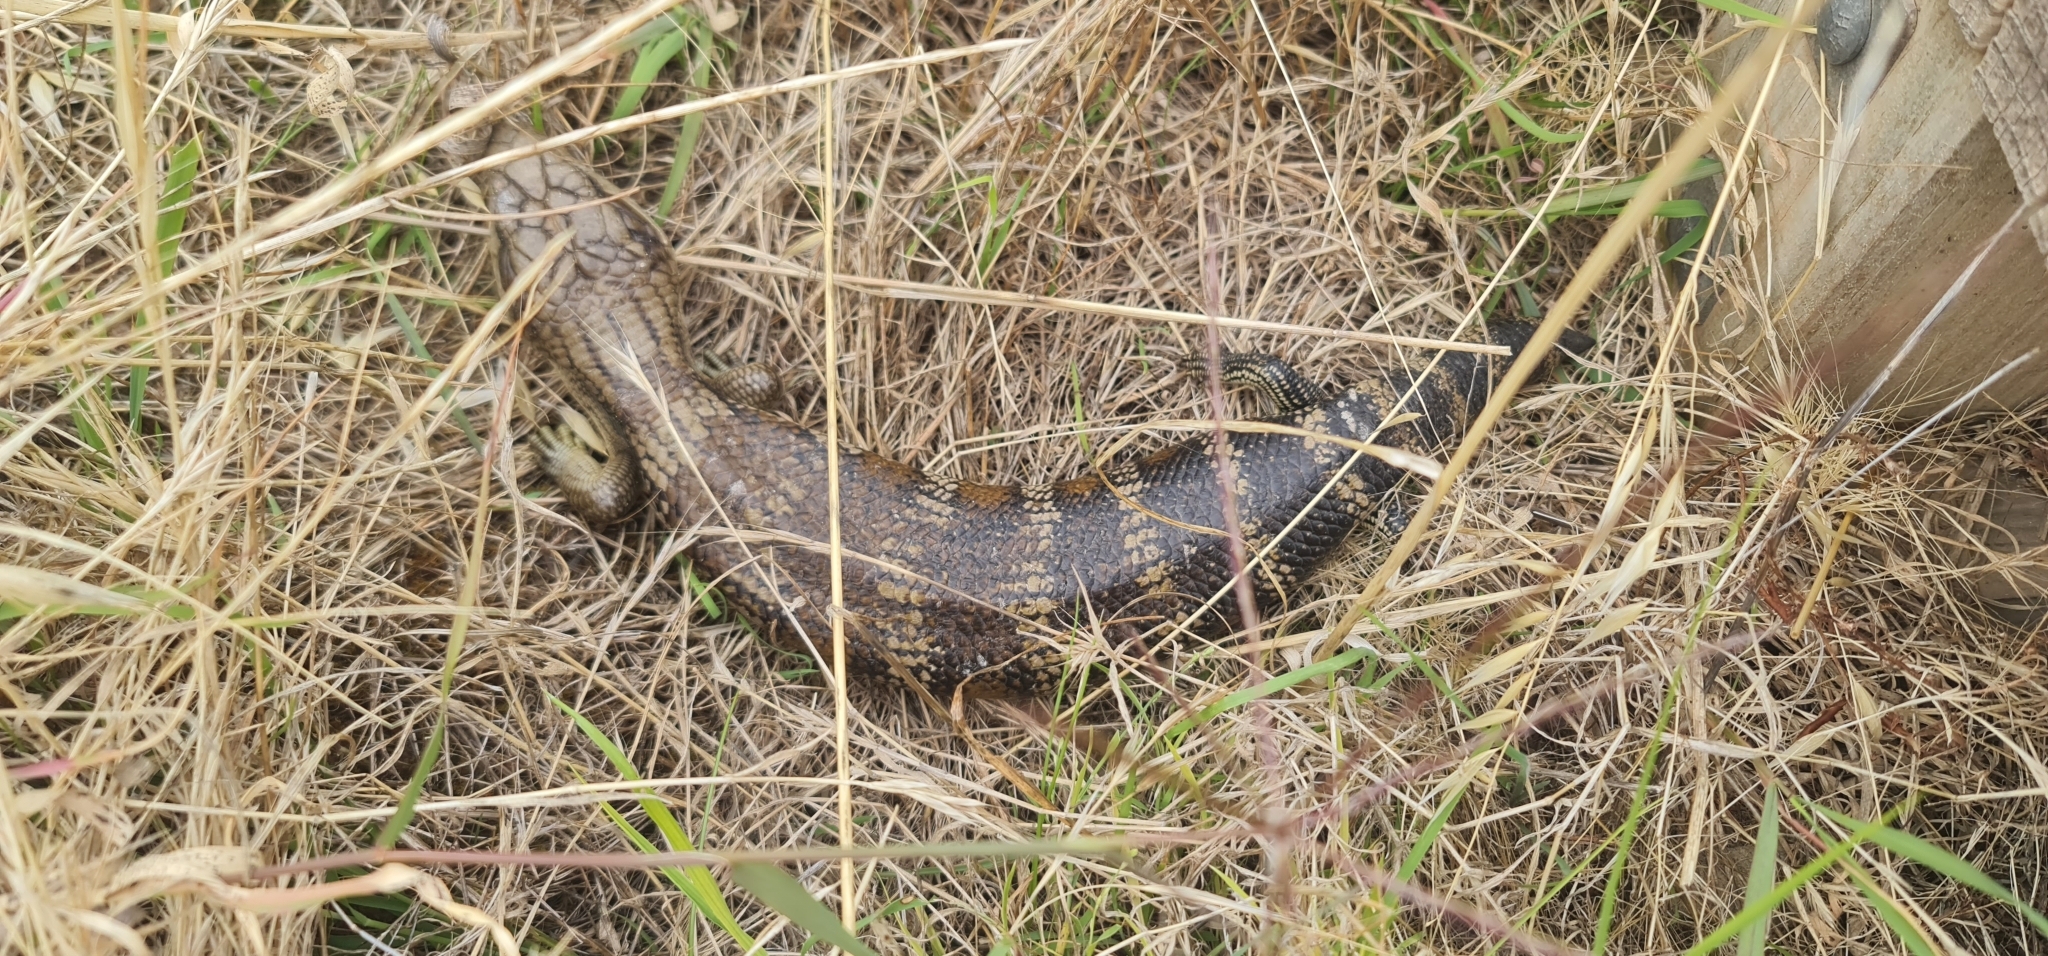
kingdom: Animalia
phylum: Chordata
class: Squamata
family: Scincidae
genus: Tiliqua
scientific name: Tiliqua scincoides
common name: Common bluetongue
